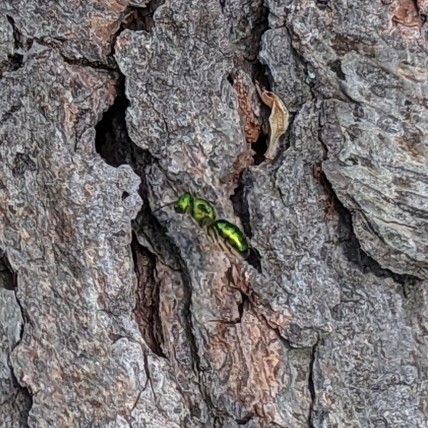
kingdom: Animalia
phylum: Arthropoda
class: Insecta
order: Hymenoptera
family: Halictidae
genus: Augochlora
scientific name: Augochlora pura
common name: Pure green sweat bee
